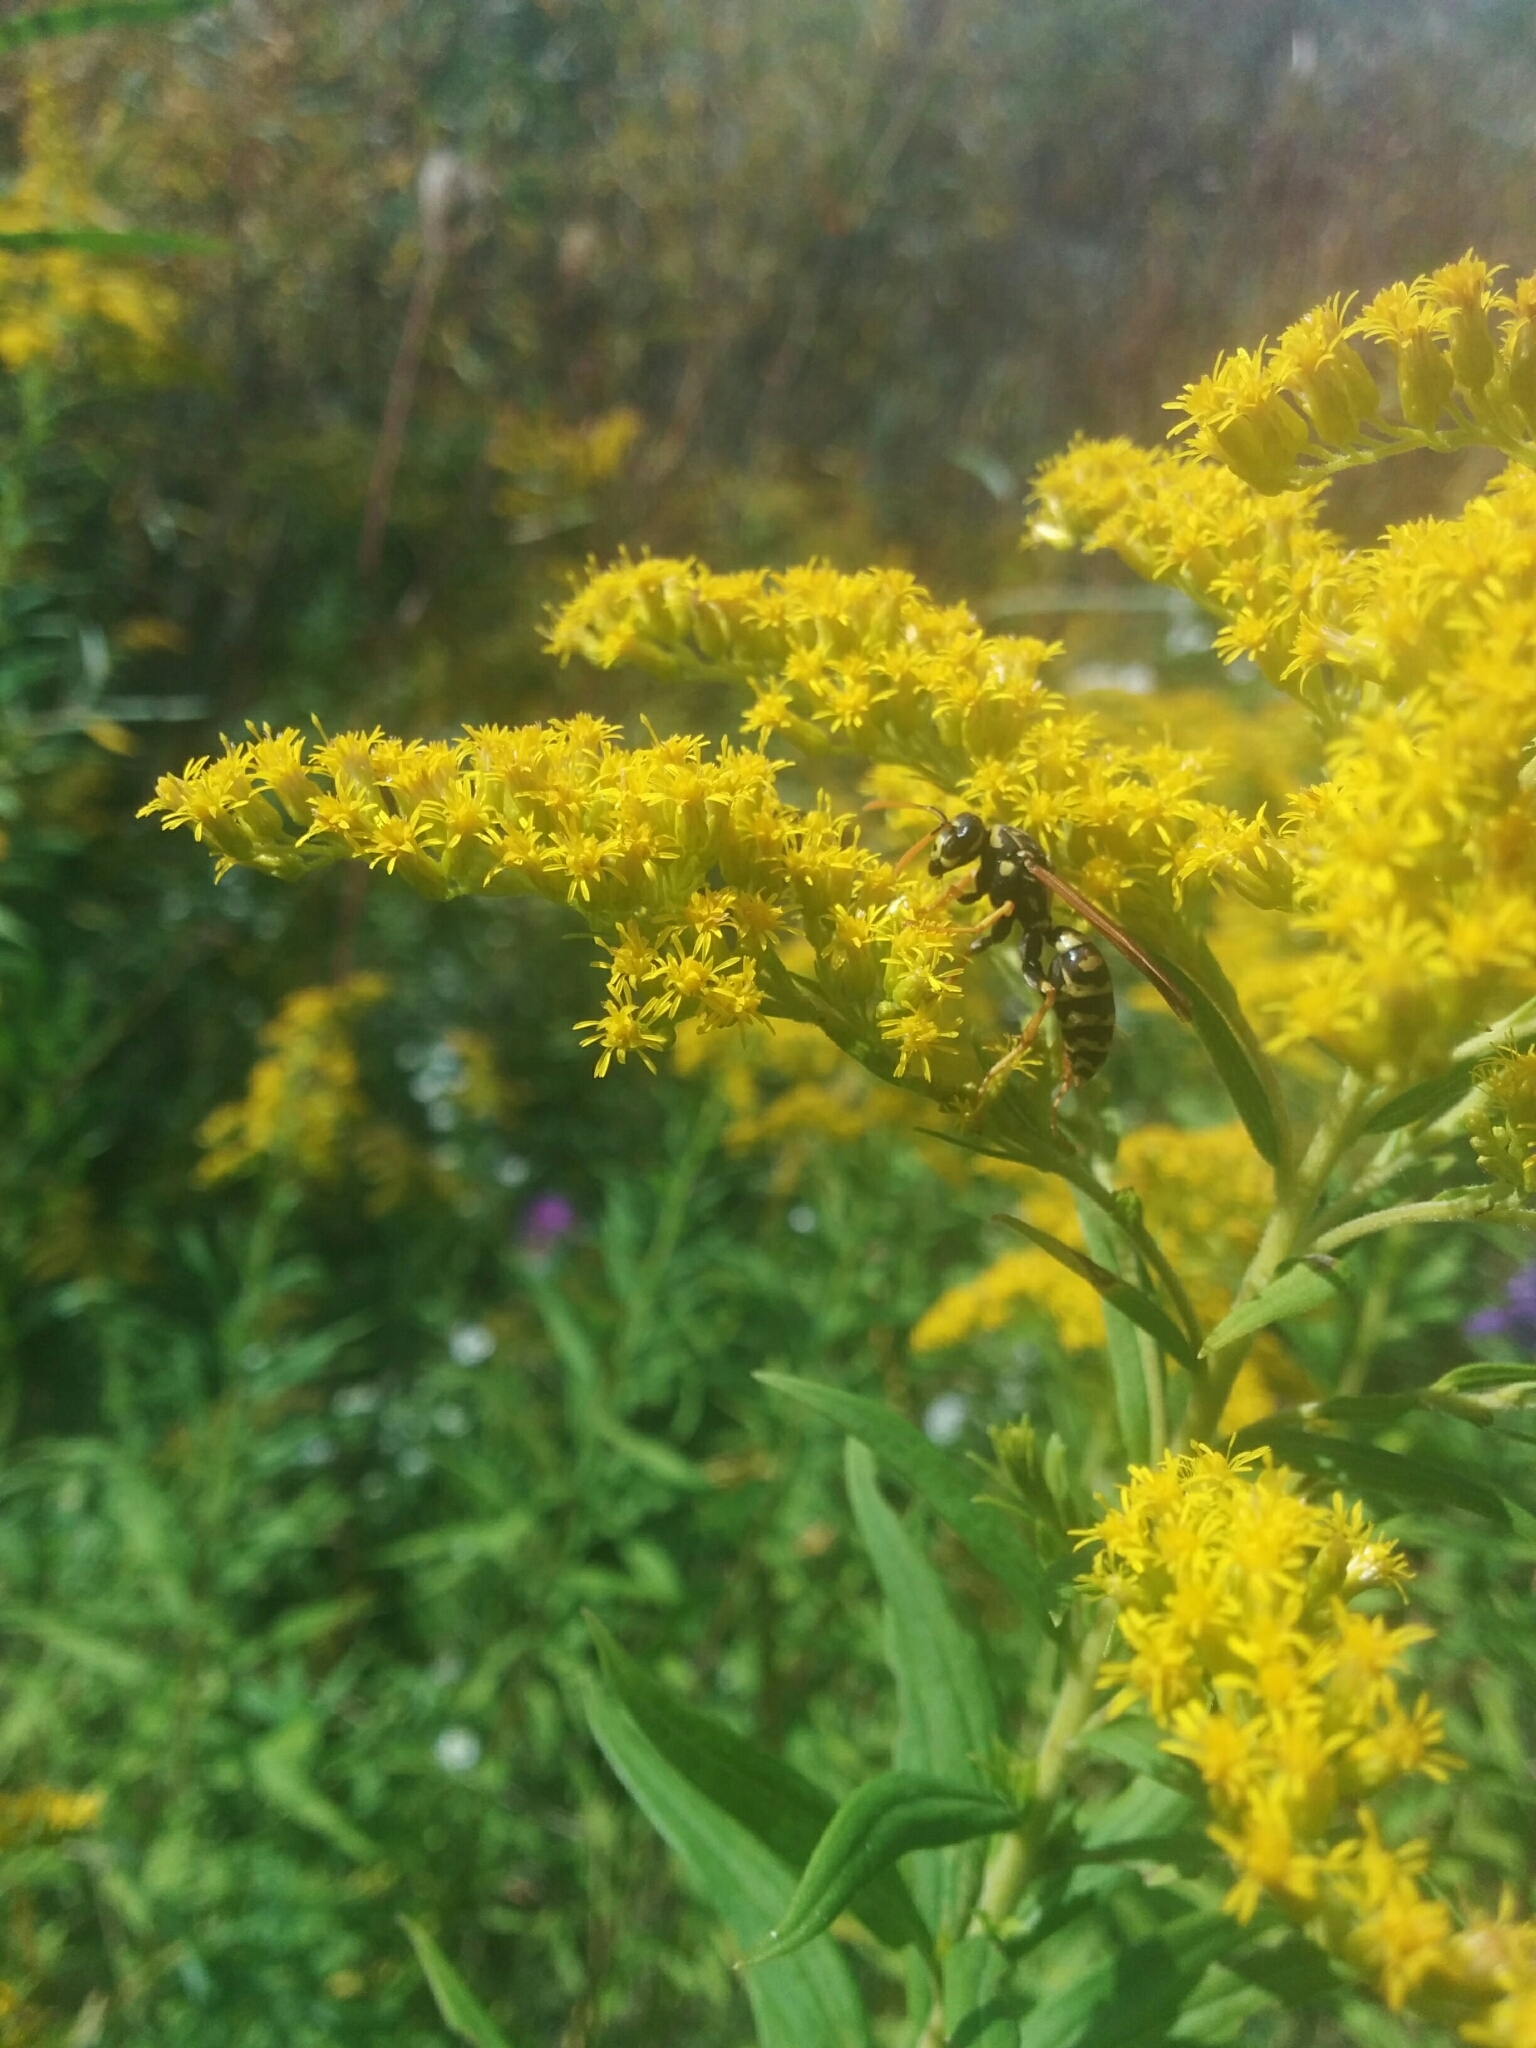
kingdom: Animalia
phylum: Arthropoda
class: Insecta
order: Hymenoptera
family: Eumenidae
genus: Polistes
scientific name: Polistes dominula
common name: Paper wasp
